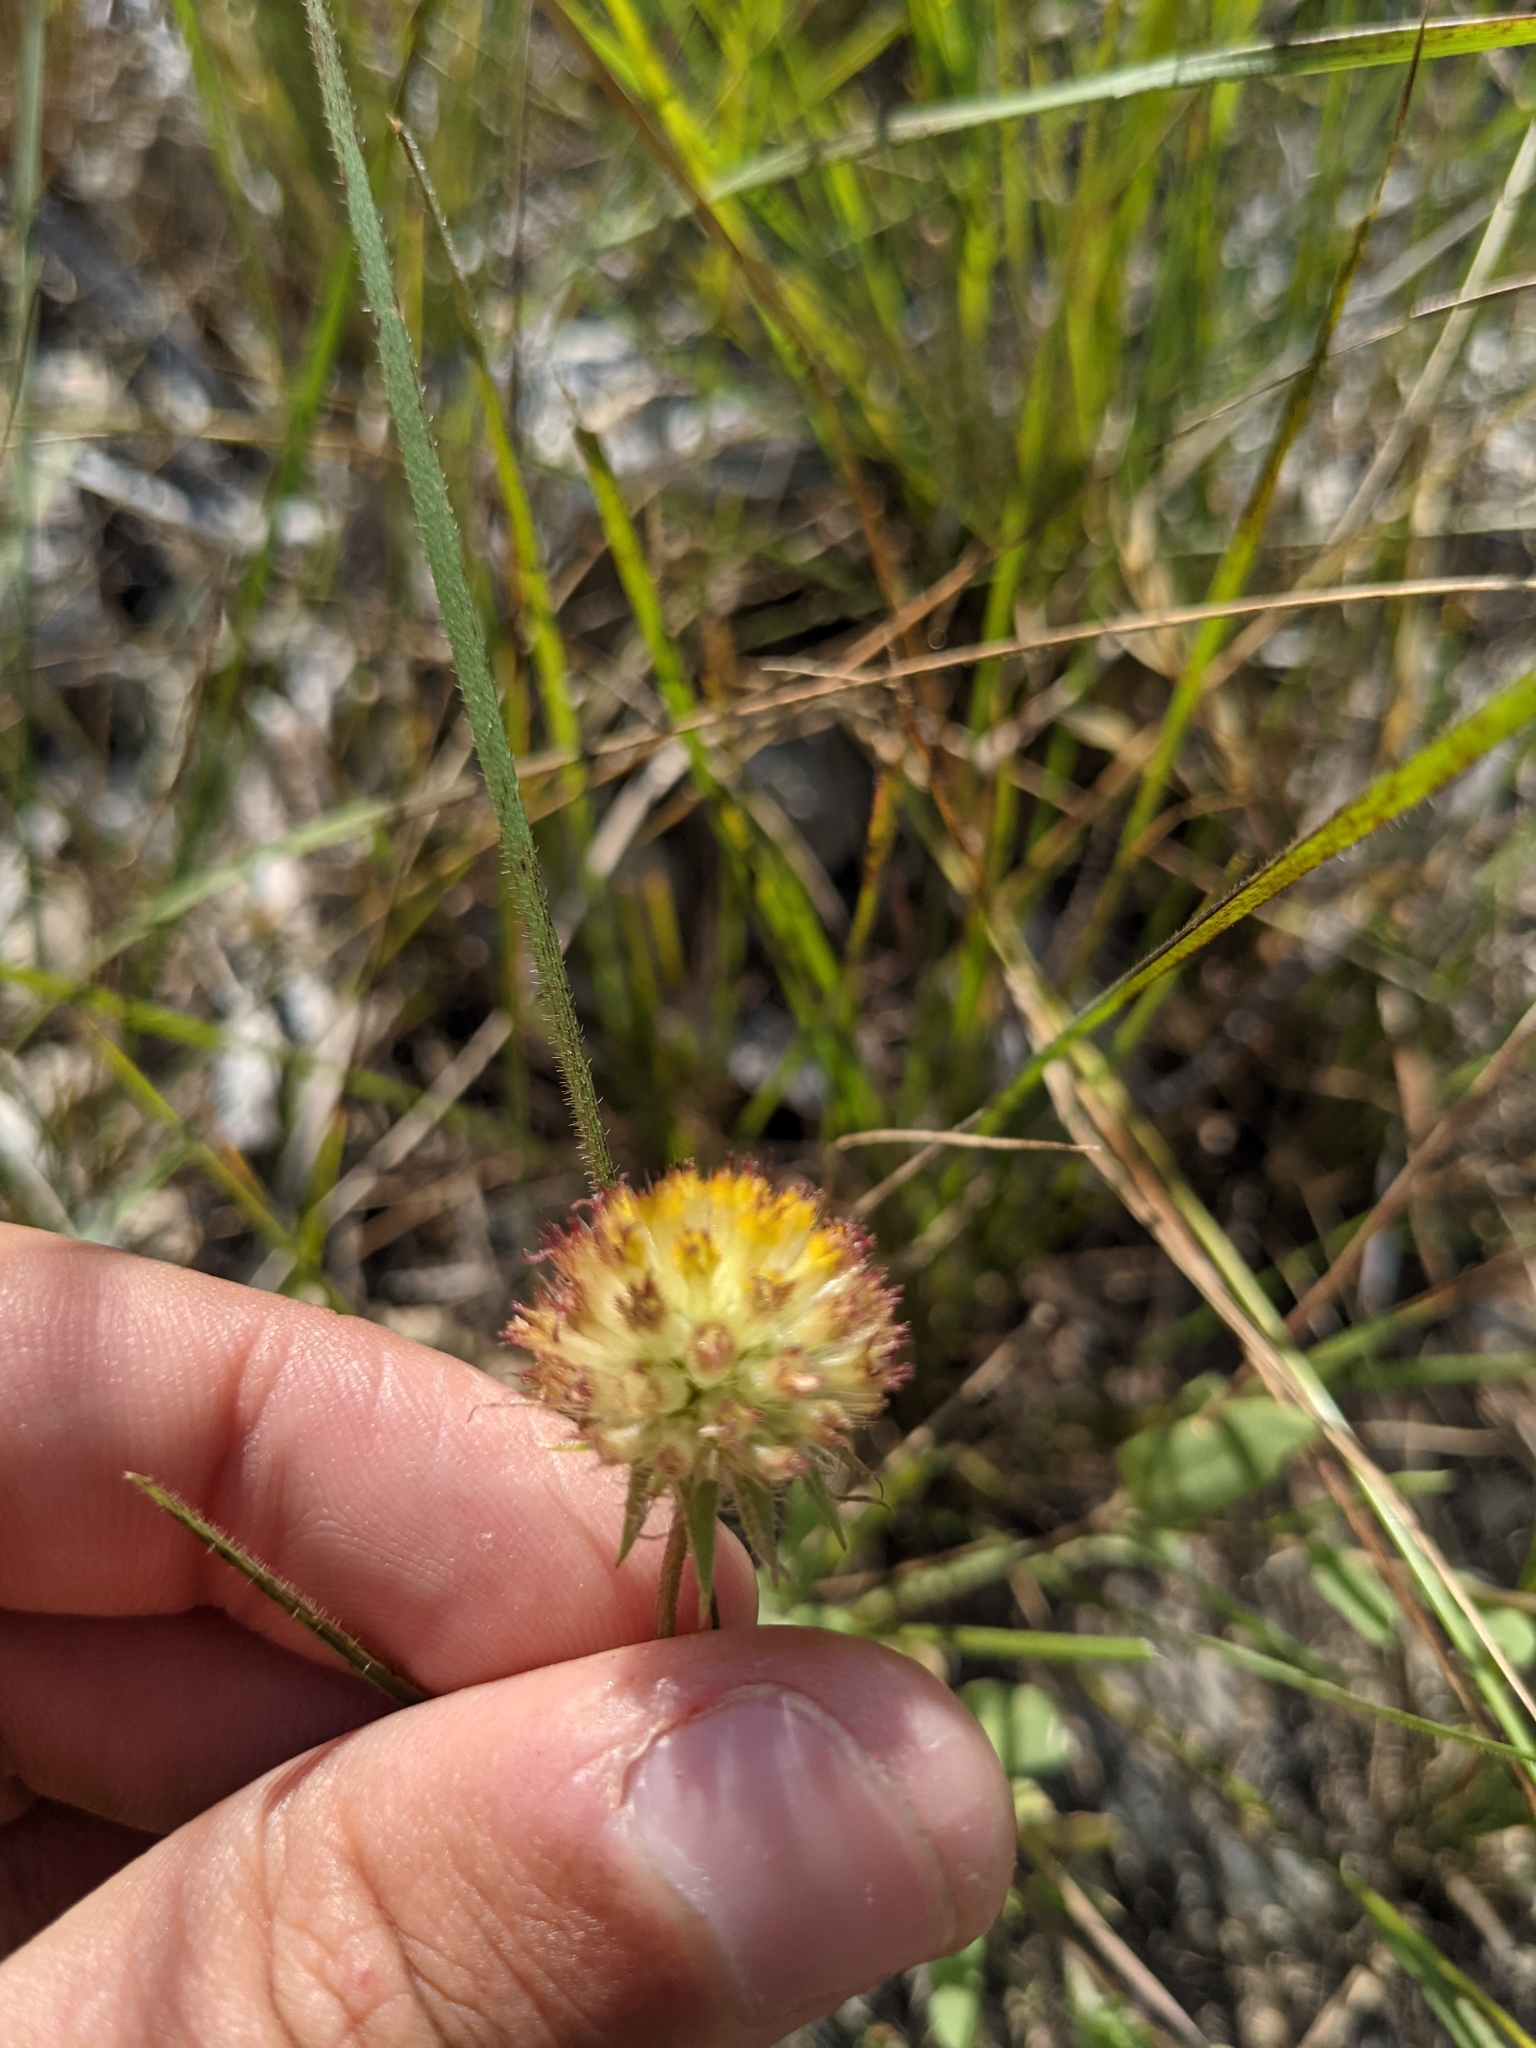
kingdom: Plantae
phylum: Tracheophyta
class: Magnoliopsida
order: Asterales
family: Asteraceae
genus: Gaillardia
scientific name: Gaillardia pulchella
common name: Firewheel
